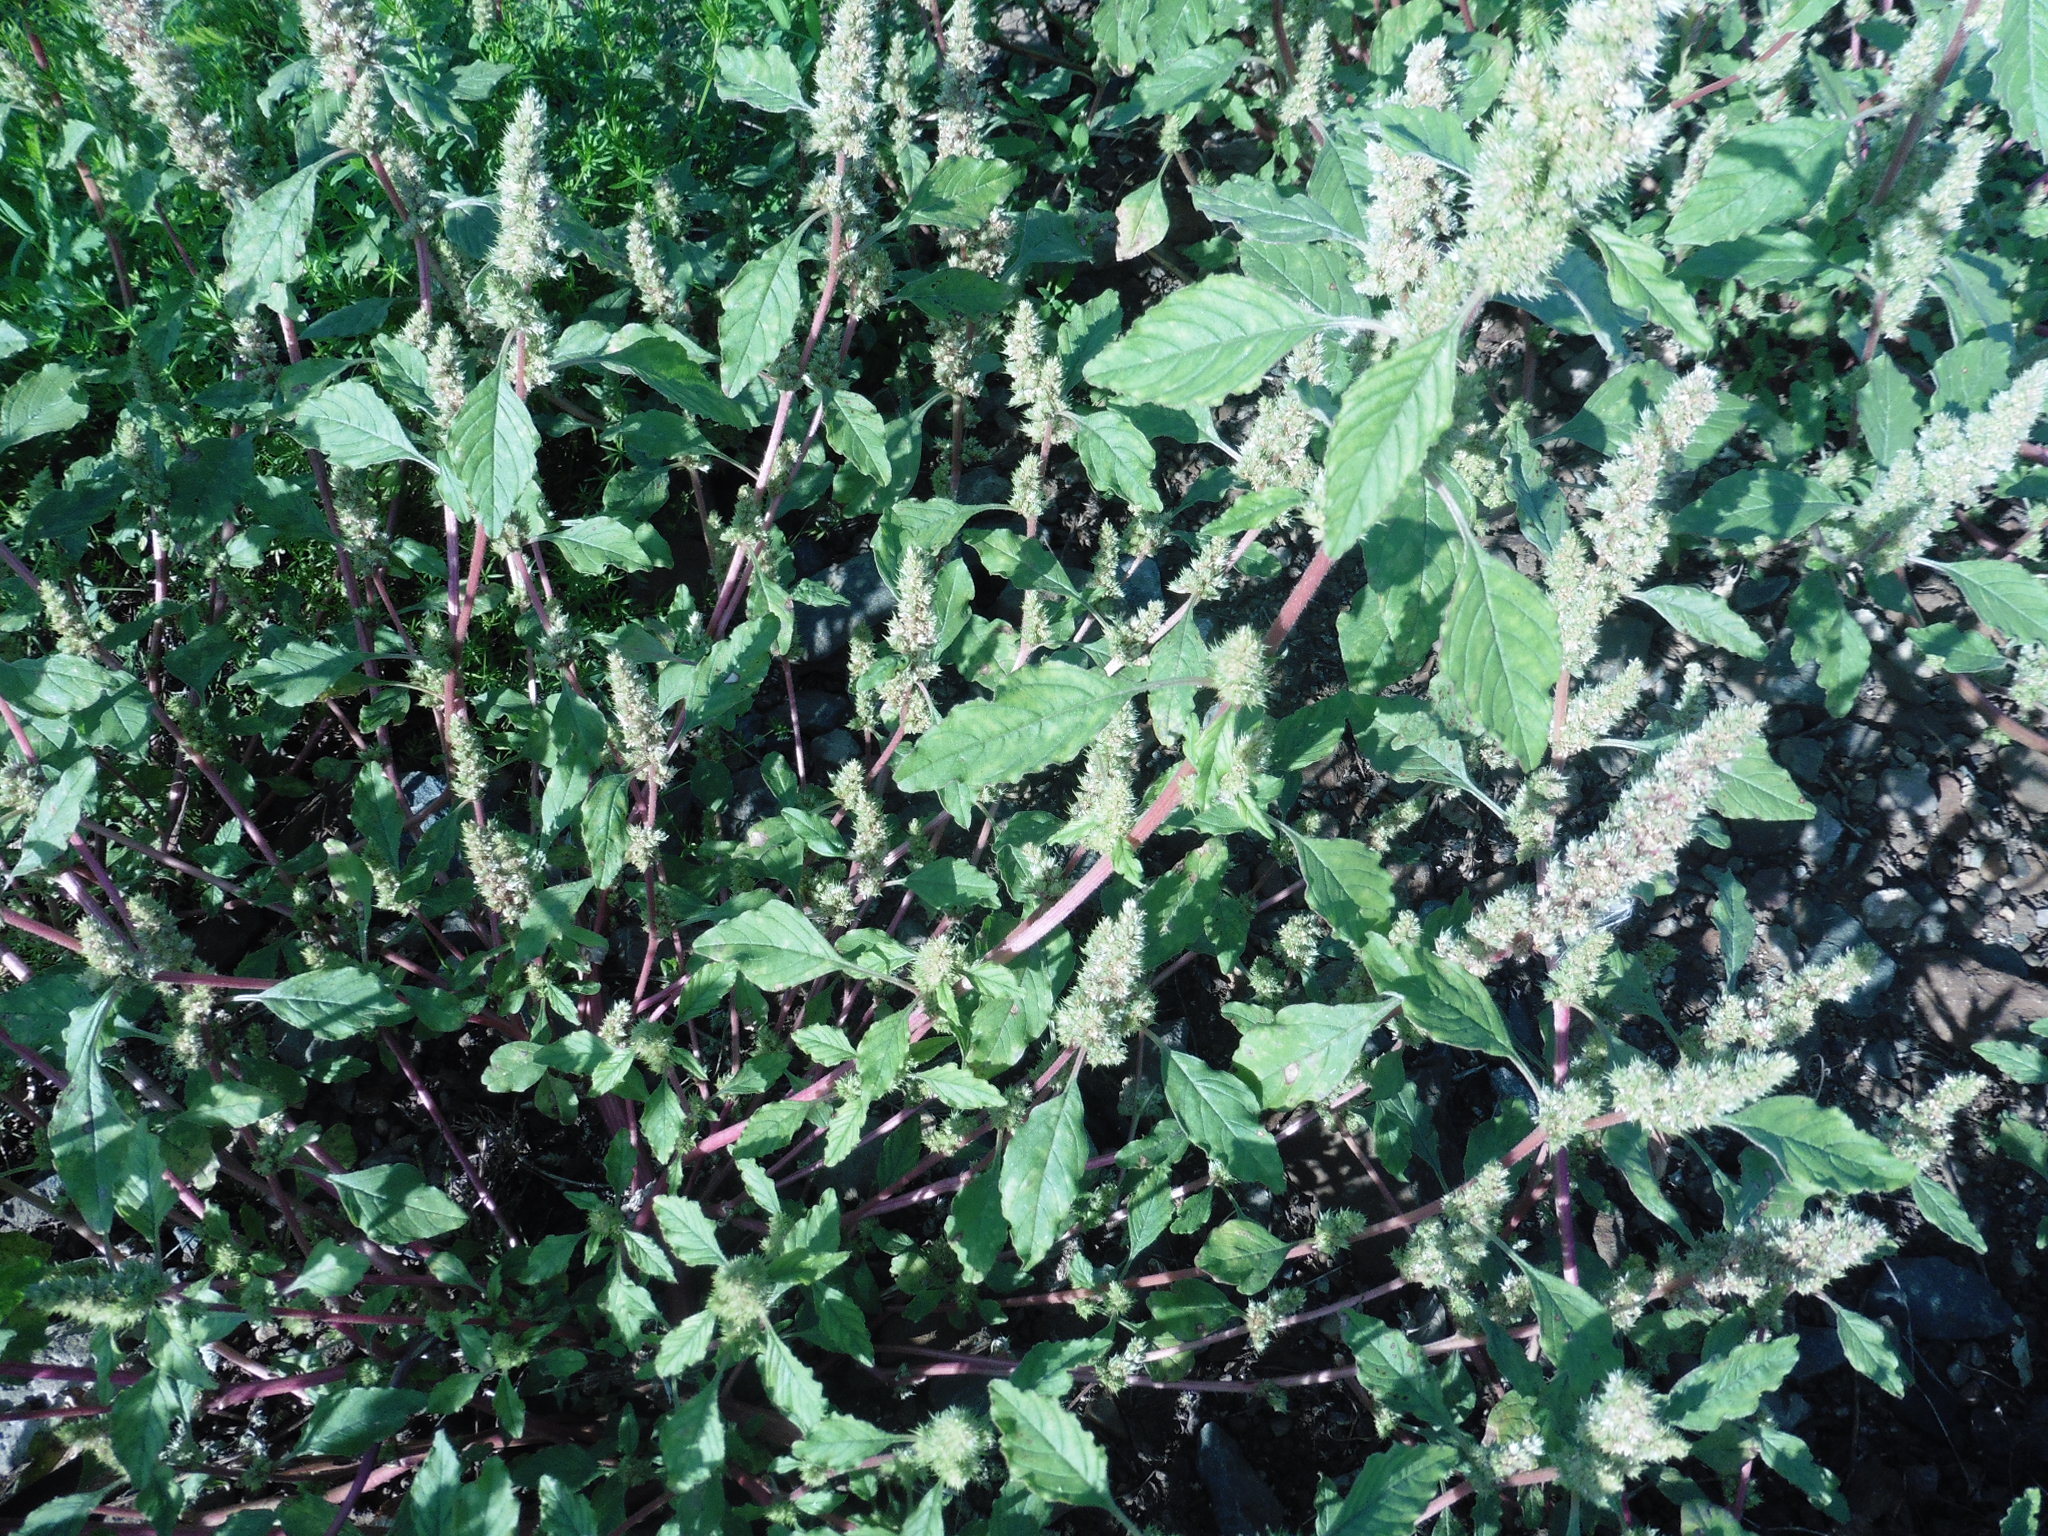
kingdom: Plantae
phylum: Tracheophyta
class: Magnoliopsida
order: Caryophyllales
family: Amaranthaceae
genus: Amaranthus
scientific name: Amaranthus retroflexus
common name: Redroot amaranth
